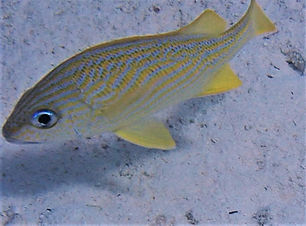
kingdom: Animalia
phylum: Chordata
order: Perciformes
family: Haemulidae
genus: Haemulon
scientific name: Haemulon flavolineatum
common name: French grunt
